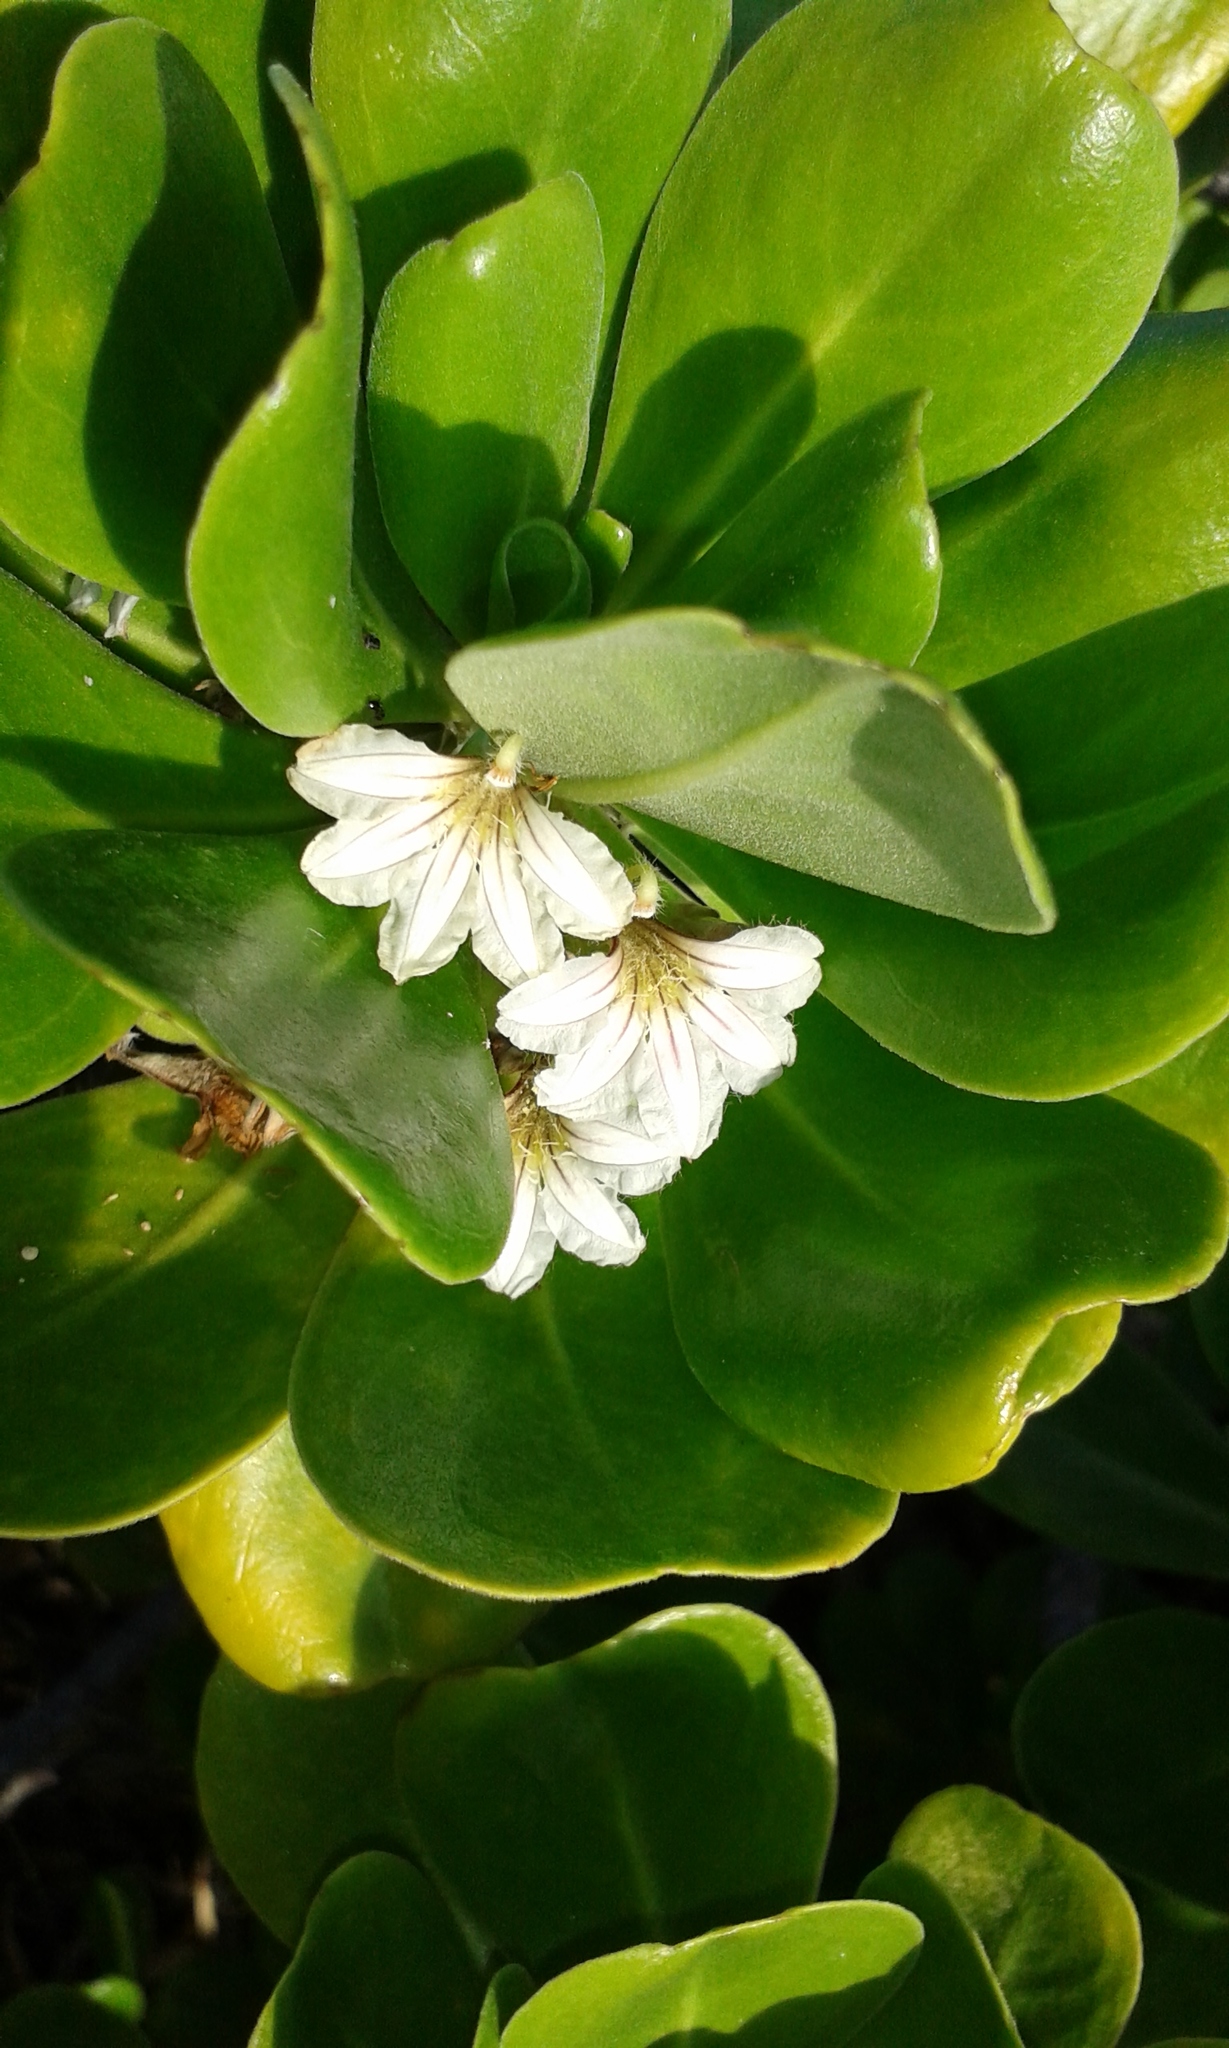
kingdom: Plantae
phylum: Tracheophyta
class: Magnoliopsida
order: Asterales
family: Goodeniaceae
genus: Scaevola
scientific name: Scaevola taccada
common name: Sea lettucetree
